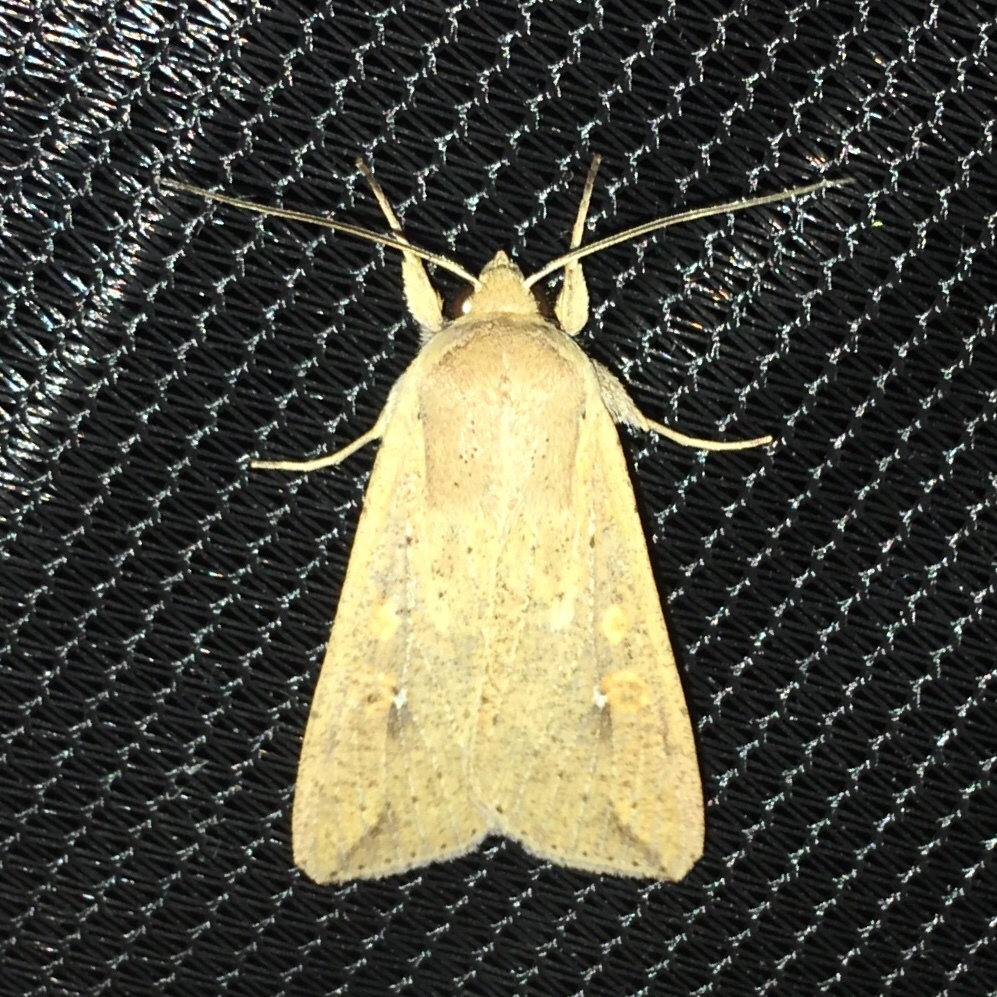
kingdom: Animalia
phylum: Arthropoda
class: Insecta
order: Lepidoptera
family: Noctuidae
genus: Mythimna
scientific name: Mythimna unipuncta
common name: White-speck
